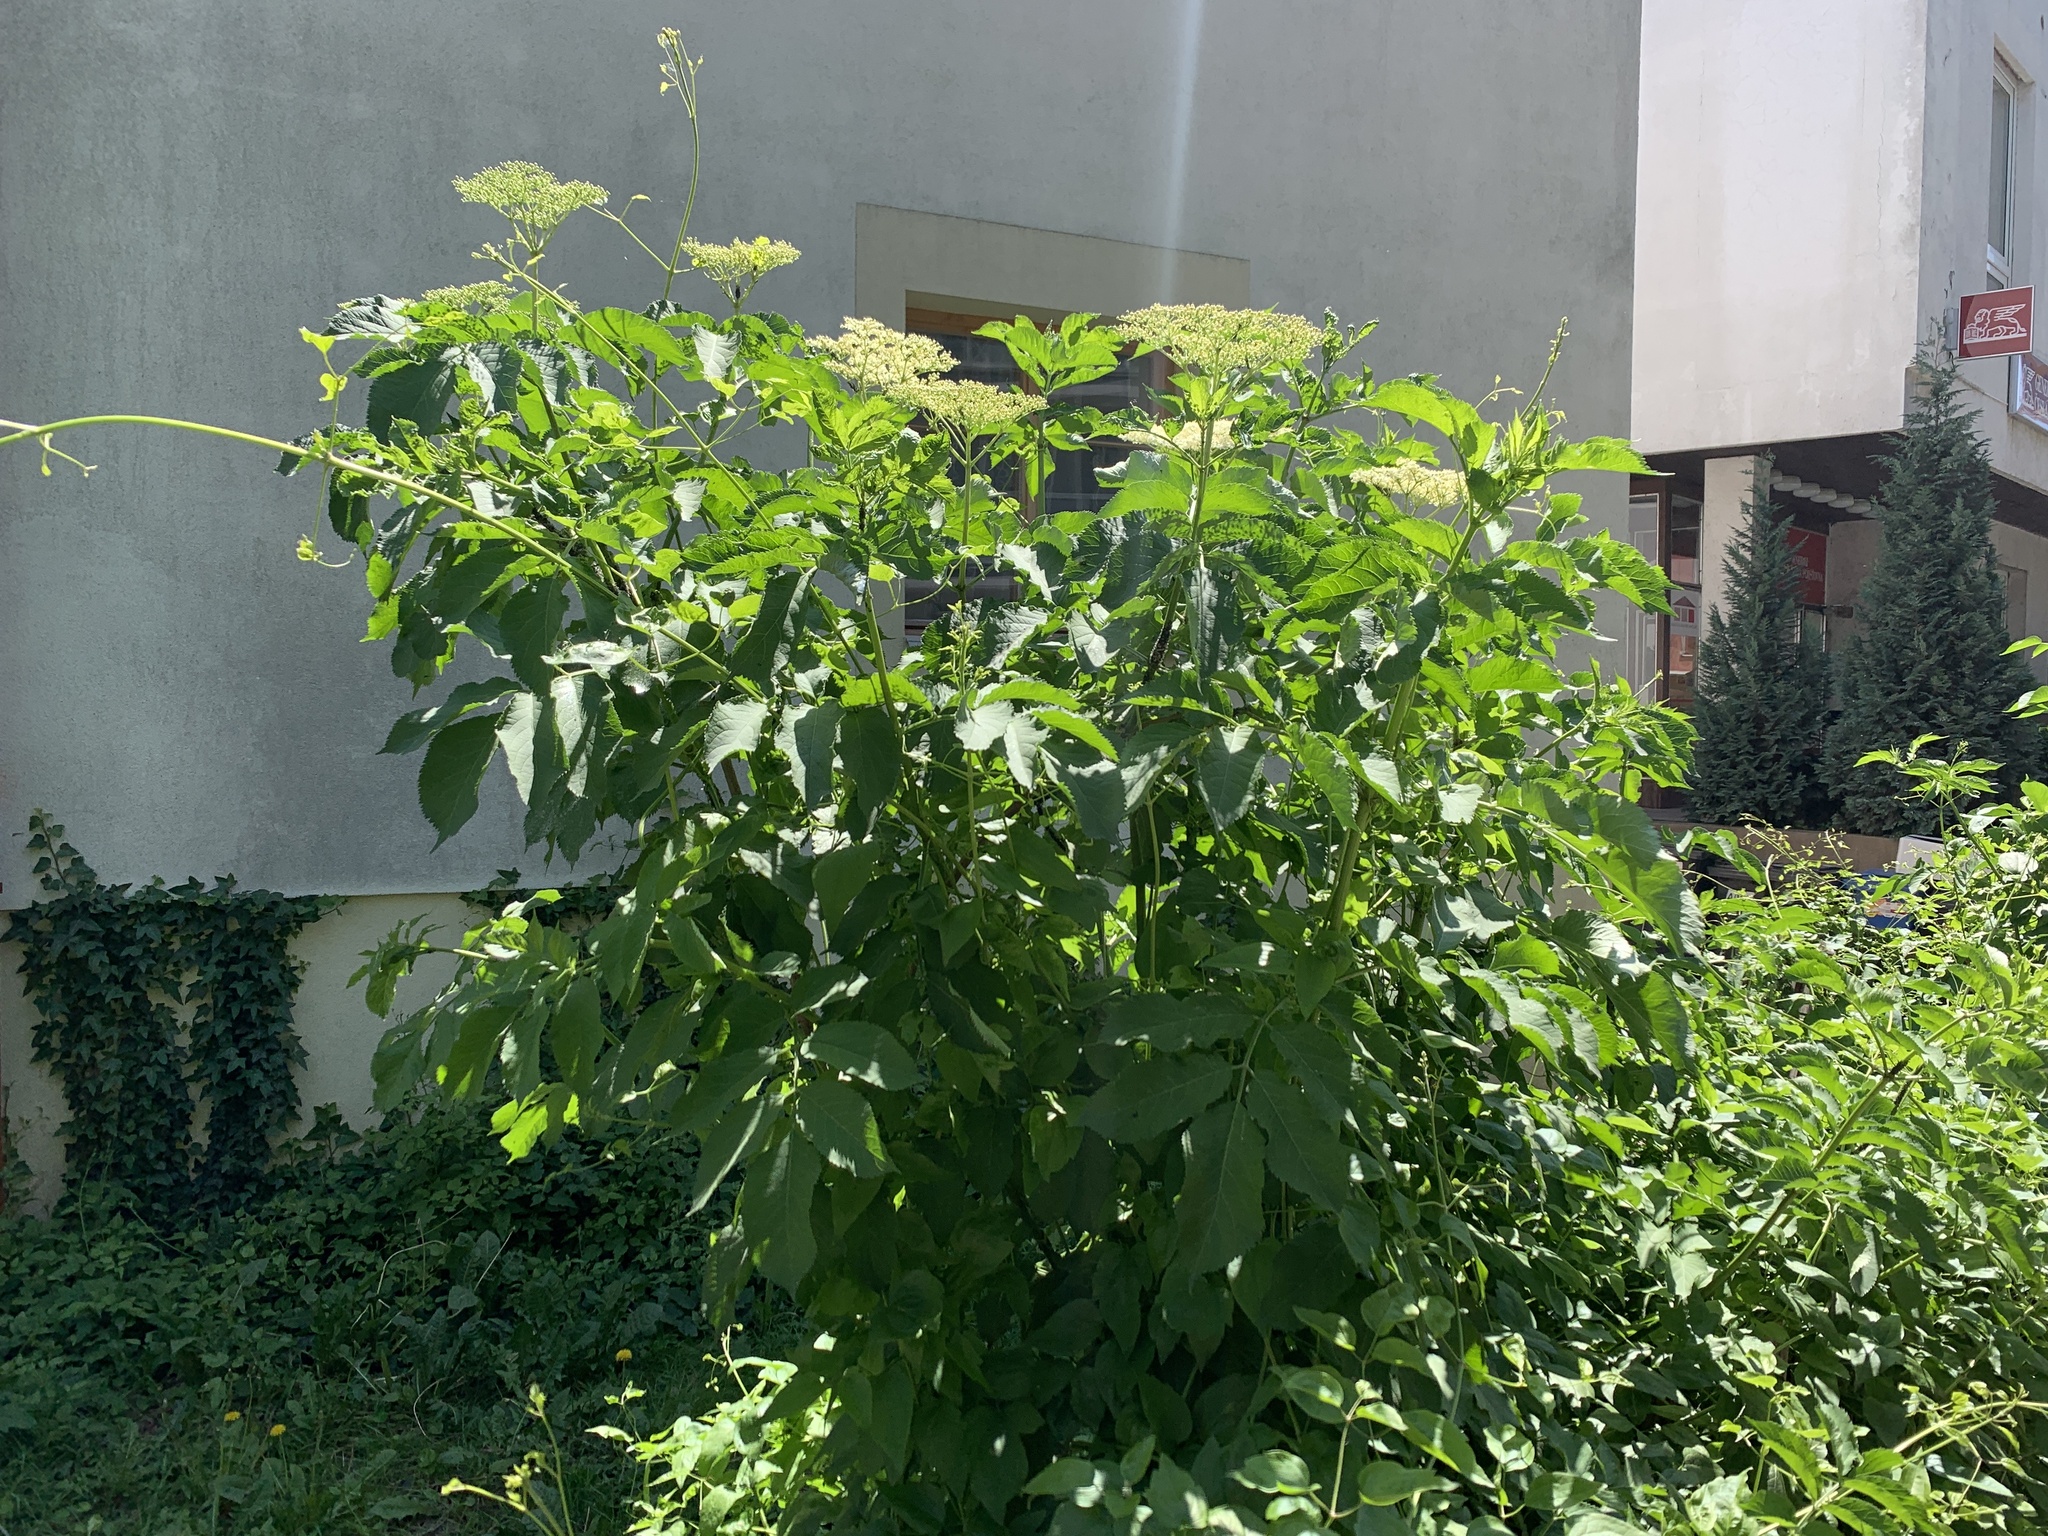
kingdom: Plantae
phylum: Tracheophyta
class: Magnoliopsida
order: Dipsacales
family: Viburnaceae
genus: Sambucus
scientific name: Sambucus nigra
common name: Elder
